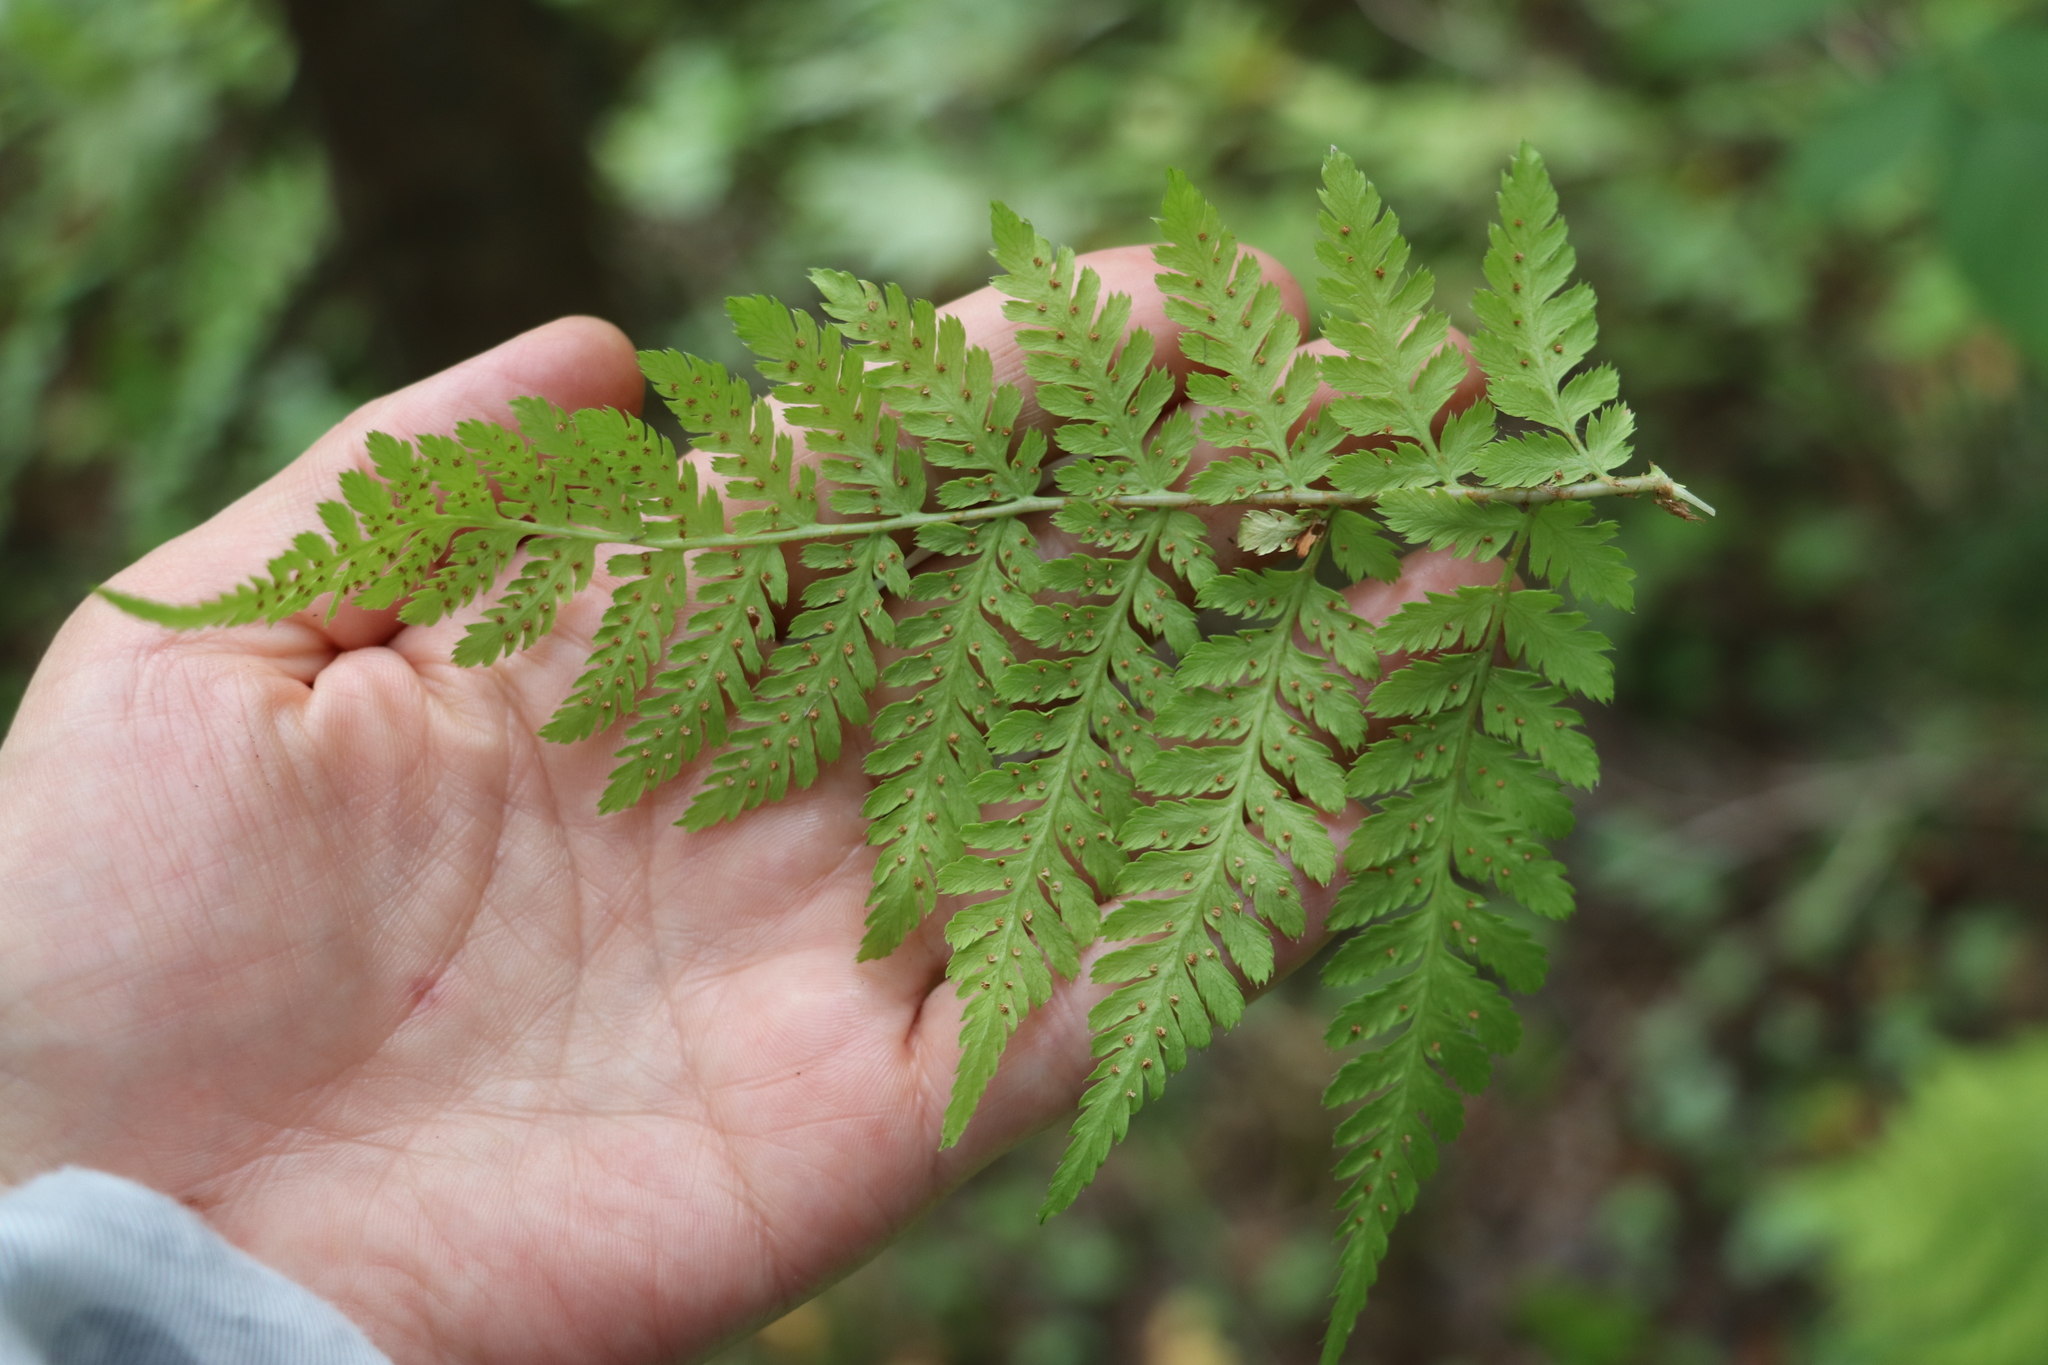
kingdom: Plantae
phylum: Tracheophyta
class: Polypodiopsida
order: Polypodiales
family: Dryopteridaceae
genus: Dryopteris
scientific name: Dryopteris expansa
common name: Northern buckler fern
